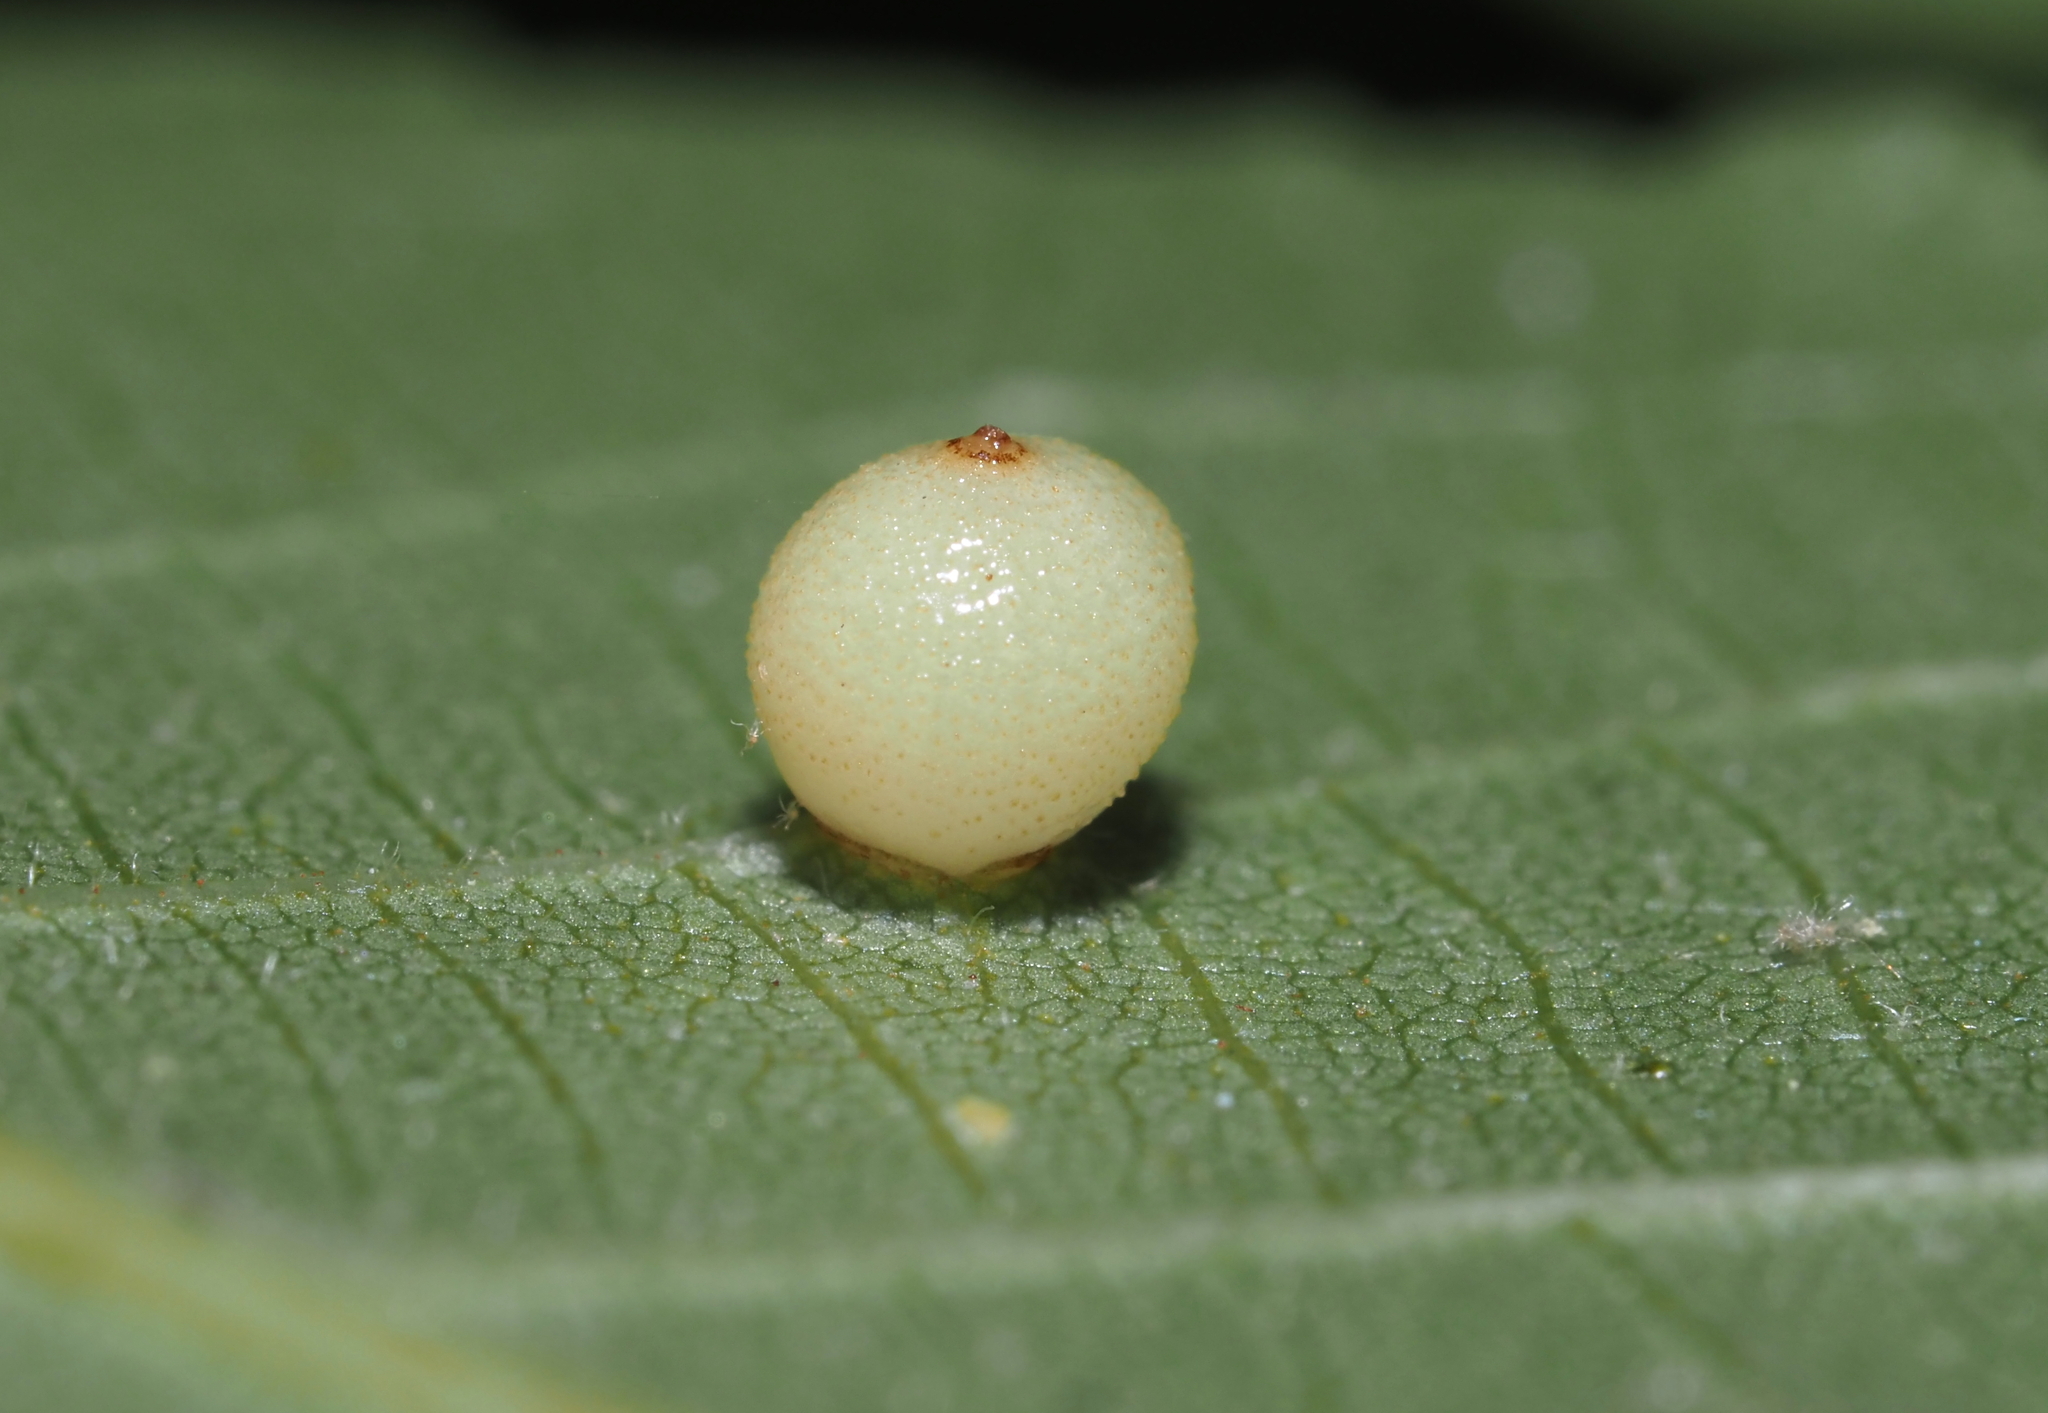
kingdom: Animalia
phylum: Arthropoda
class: Insecta
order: Diptera
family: Cecidomyiidae
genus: Caryomyia
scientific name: Caryomyia caryae
